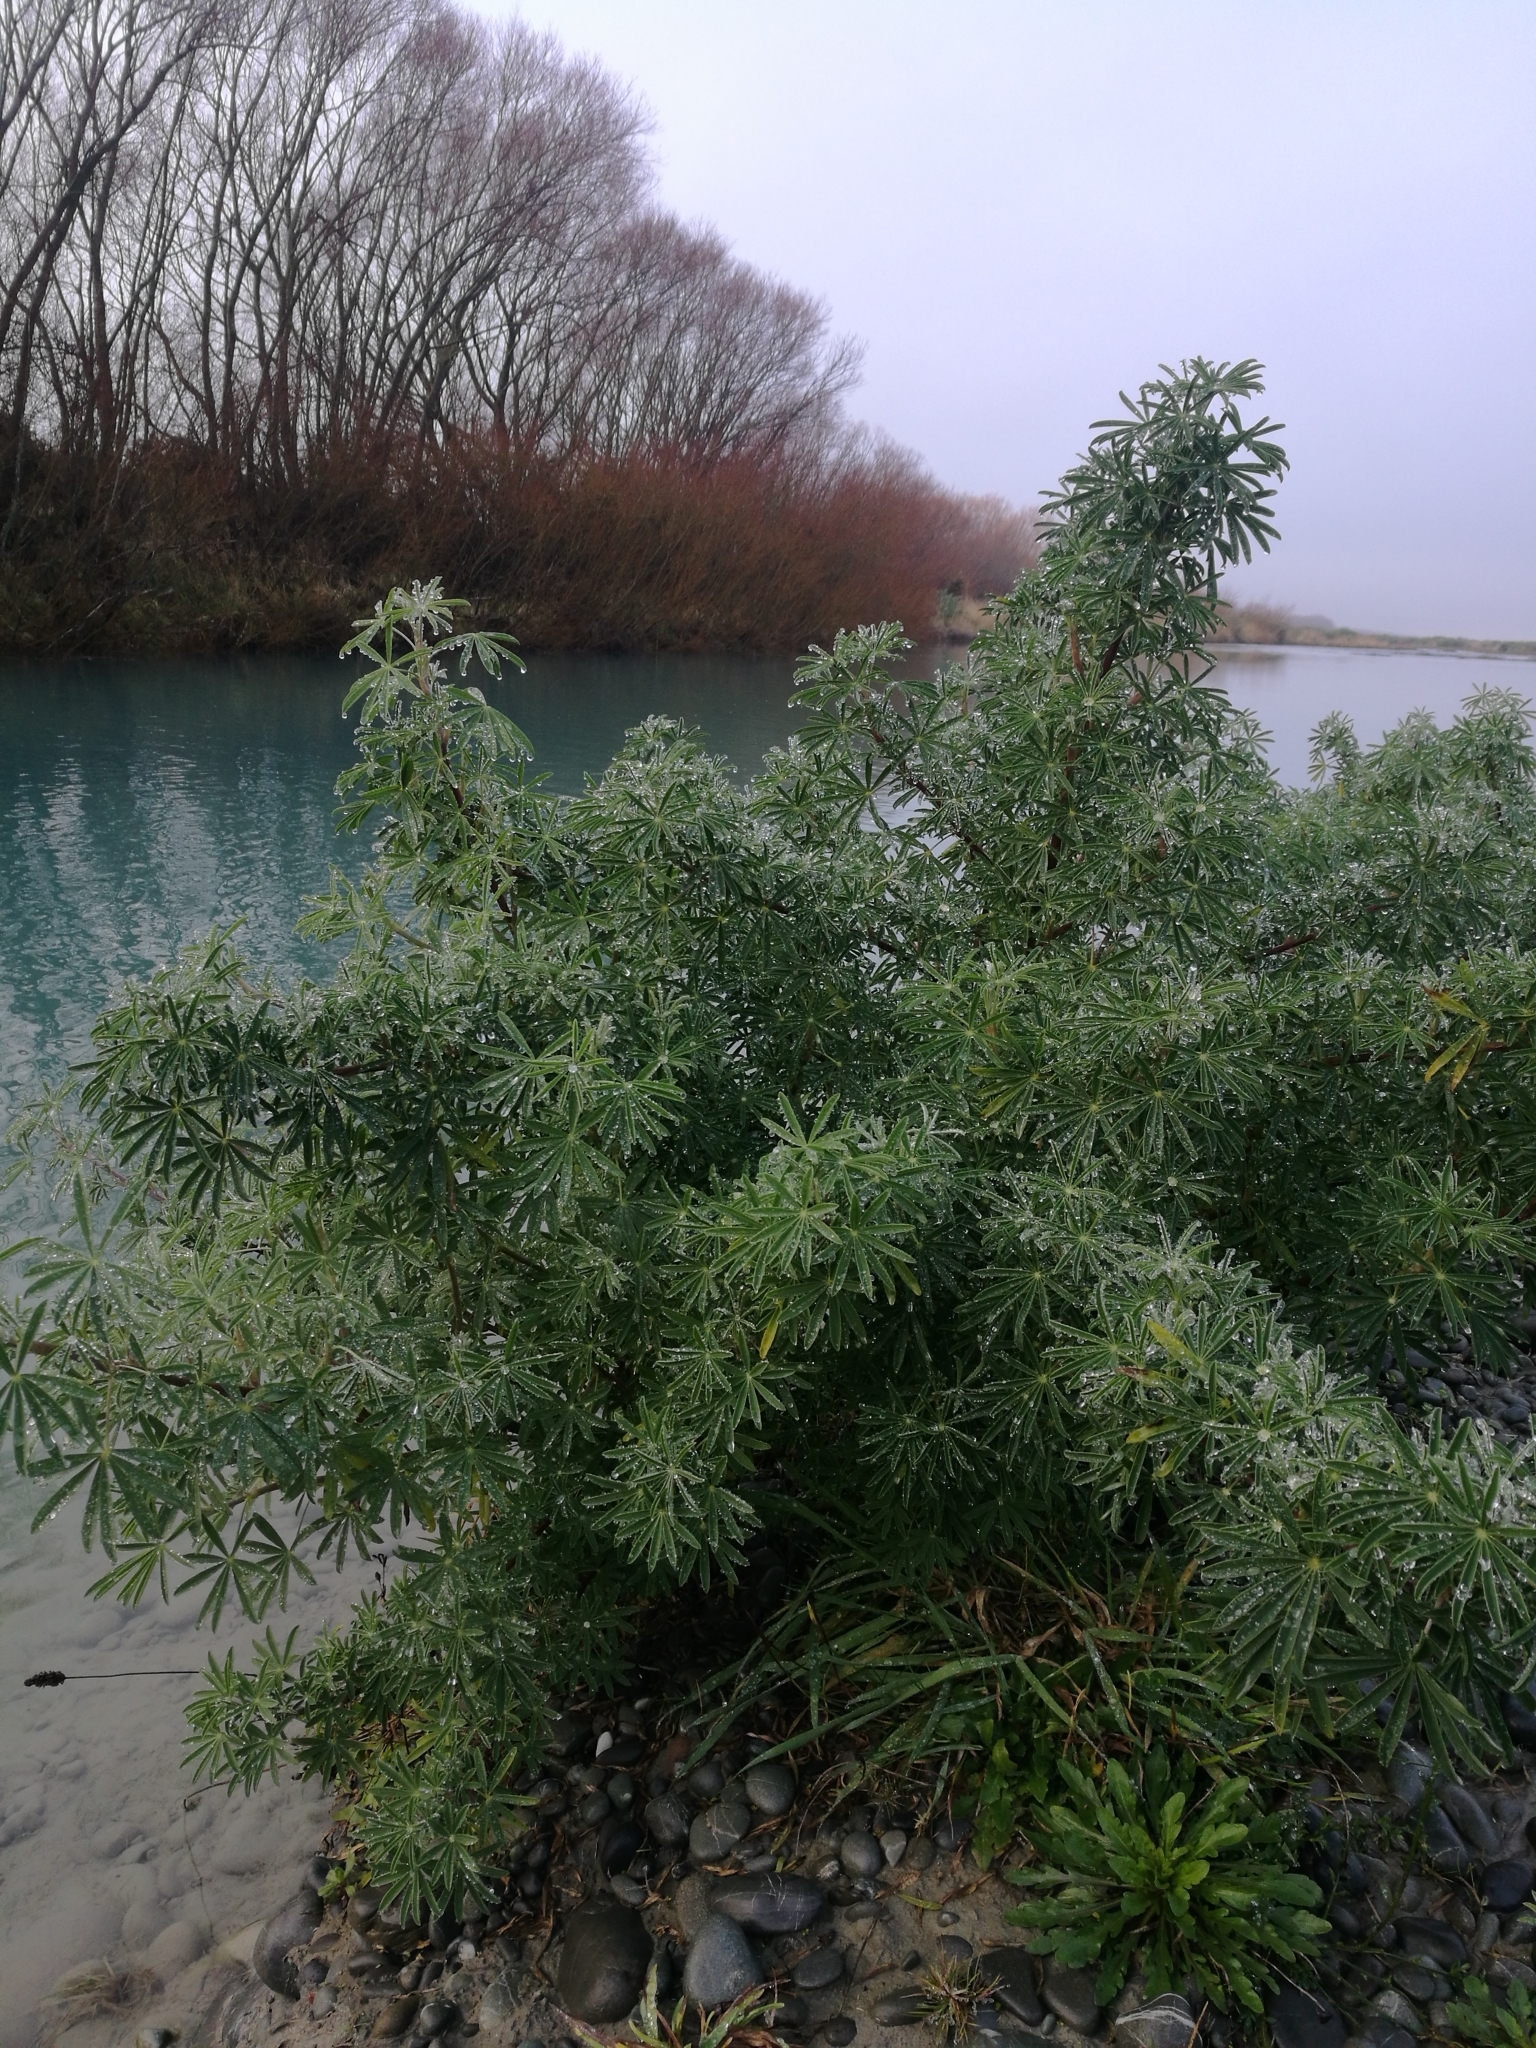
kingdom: Plantae
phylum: Tracheophyta
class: Magnoliopsida
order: Fabales
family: Fabaceae
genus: Lupinus
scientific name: Lupinus arboreus
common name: Yellow bush lupine
